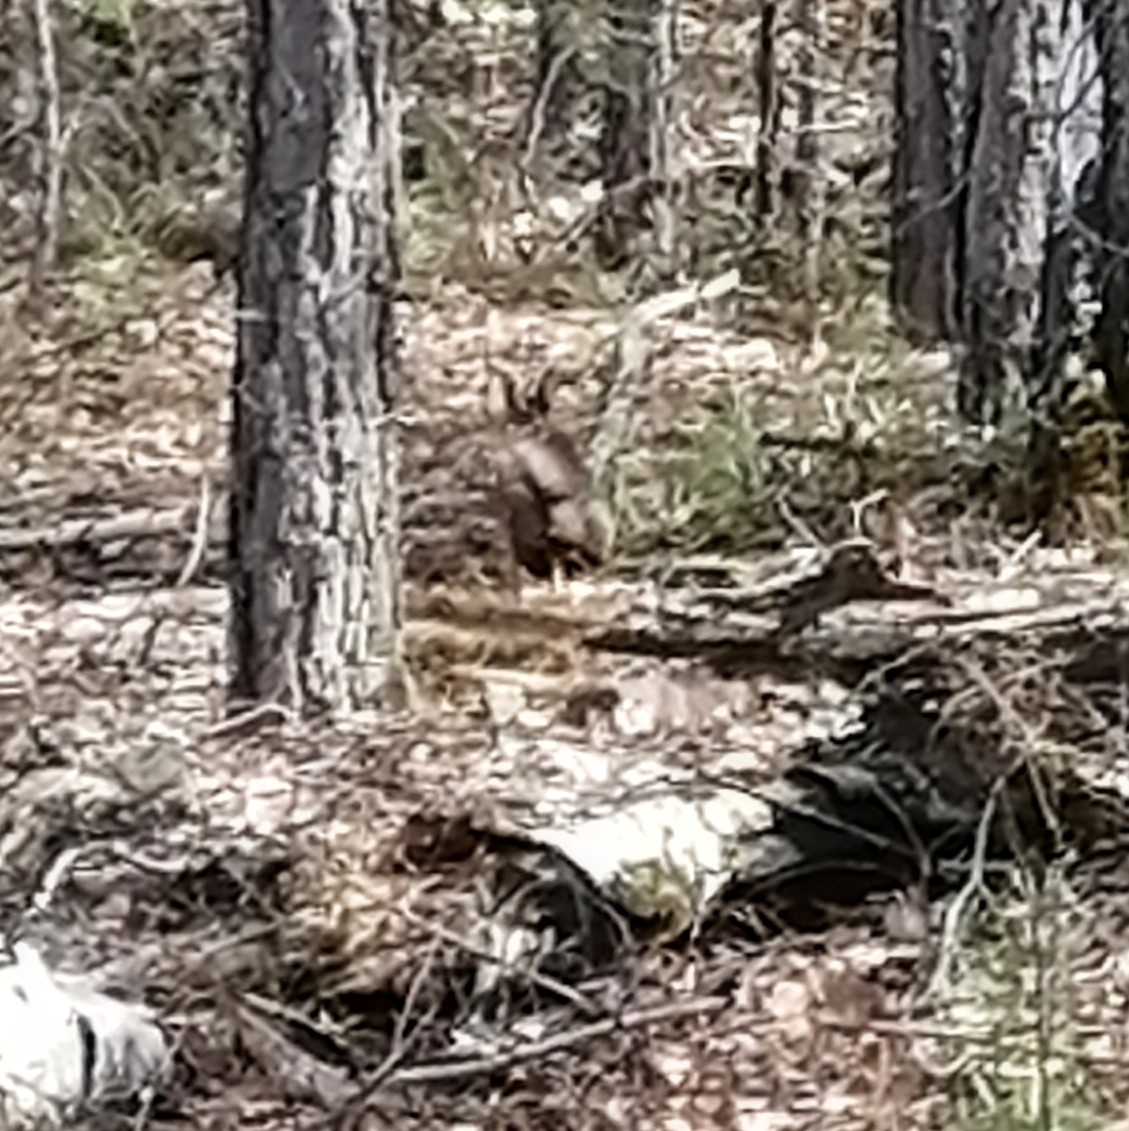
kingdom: Animalia
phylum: Chordata
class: Mammalia
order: Rodentia
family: Sciuridae
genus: Sciurus
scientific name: Sciurus vulgaris
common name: Eurasian red squirrel
